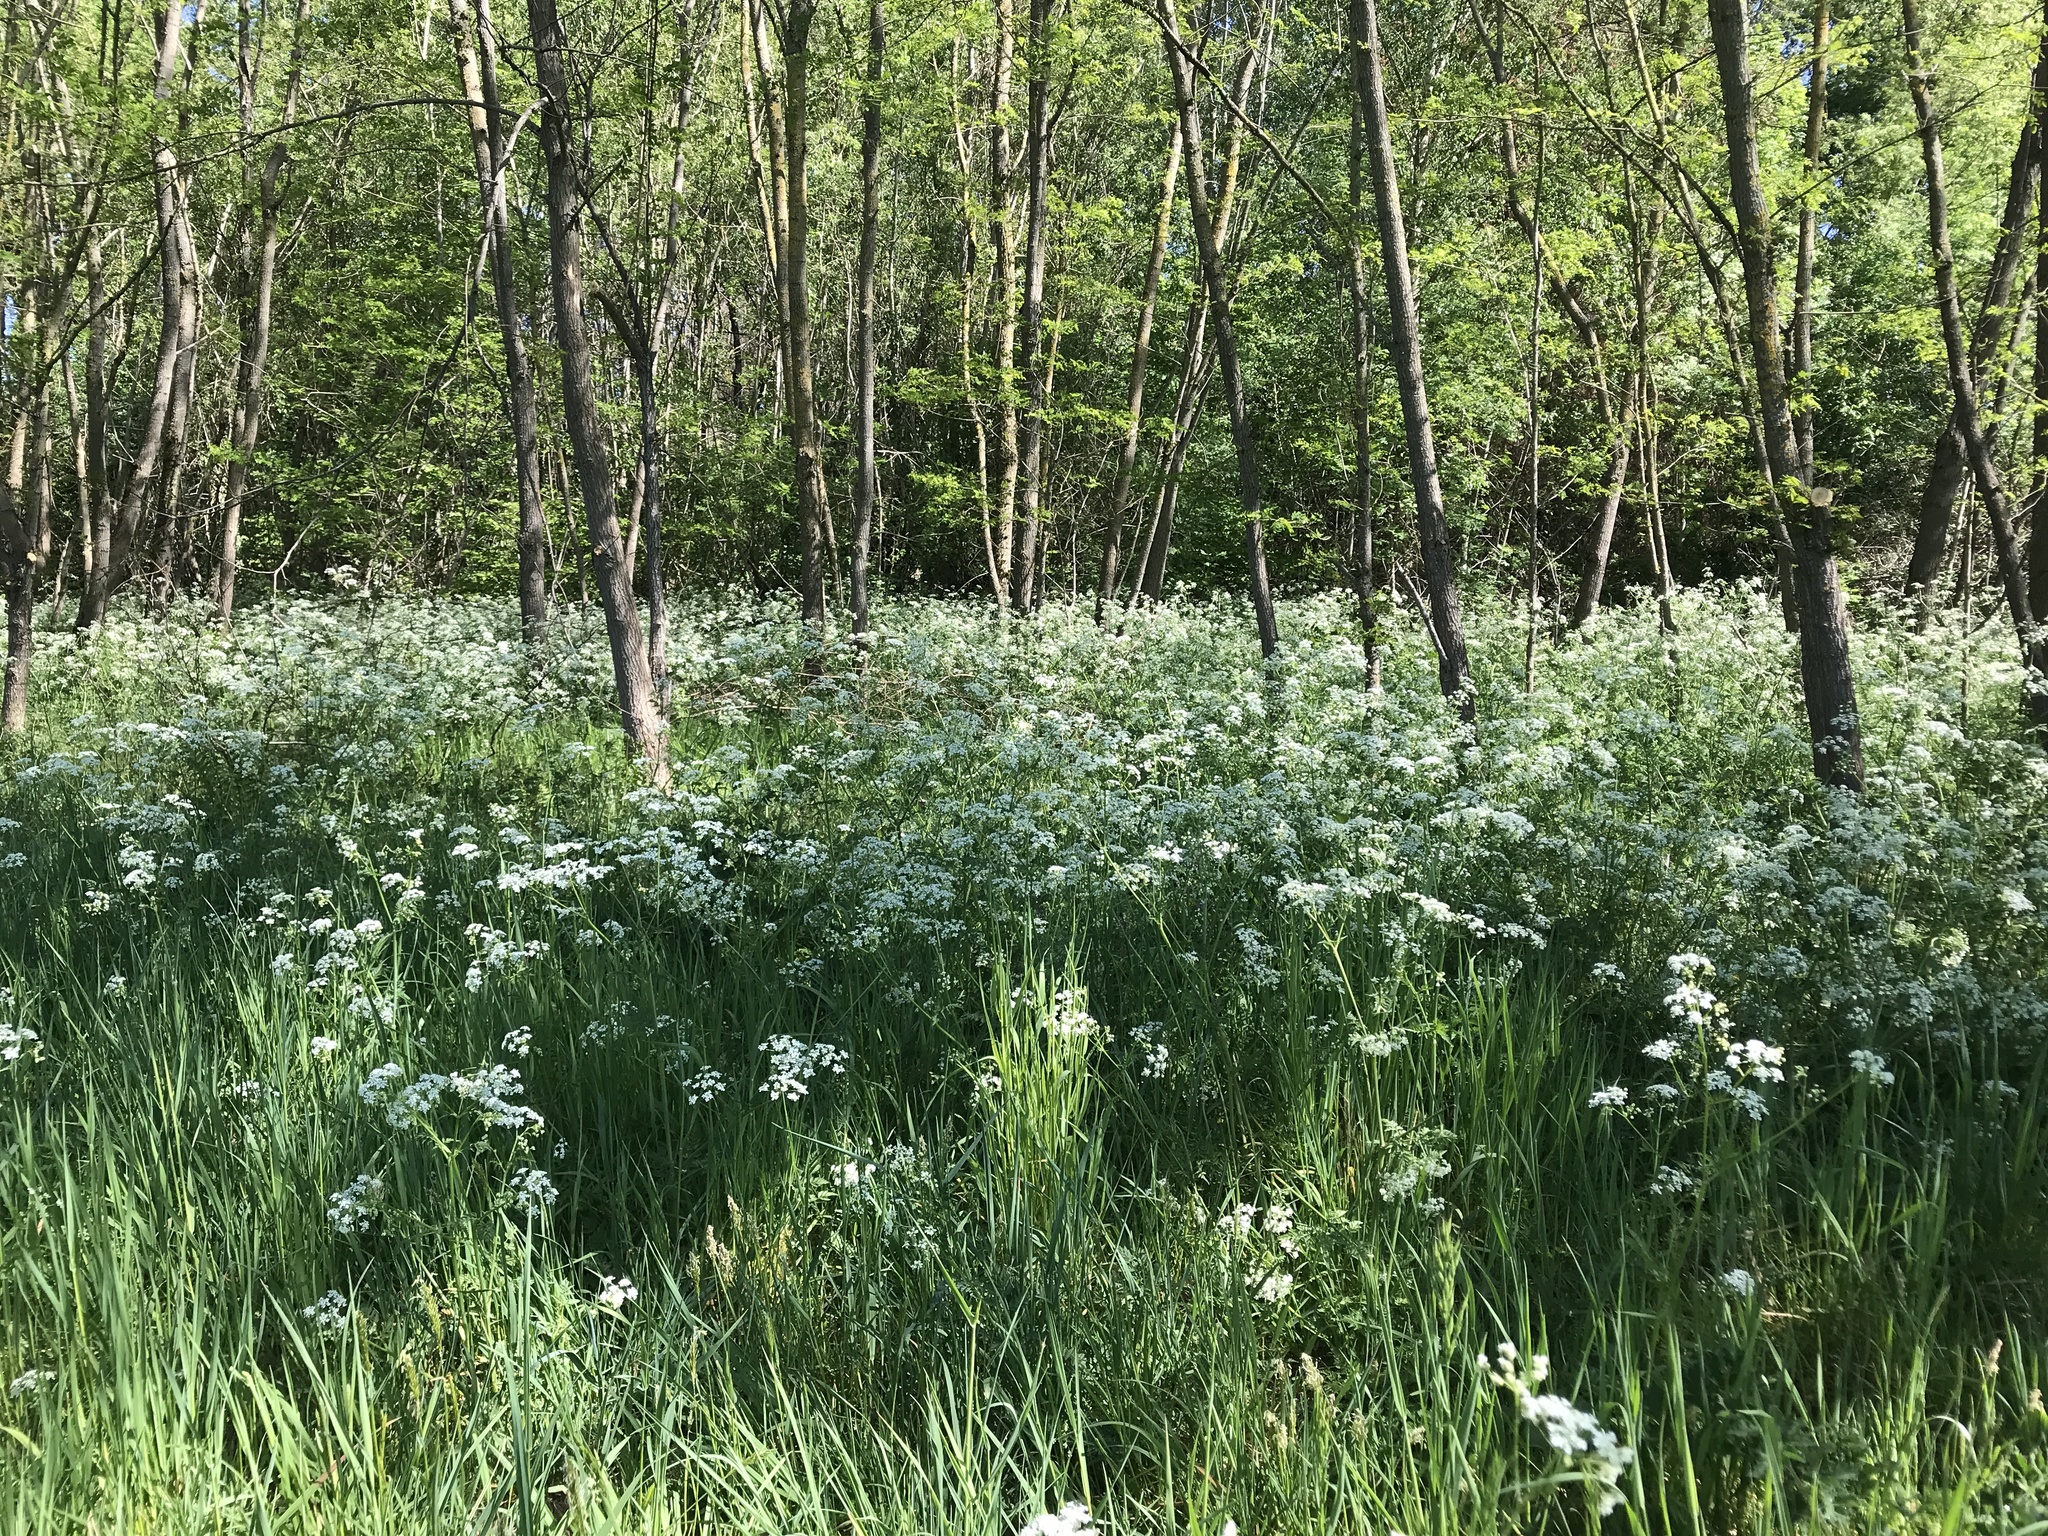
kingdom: Plantae
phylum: Tracheophyta
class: Magnoliopsida
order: Apiales
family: Apiaceae
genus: Anthriscus
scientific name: Anthriscus sylvestris
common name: Cow parsley
